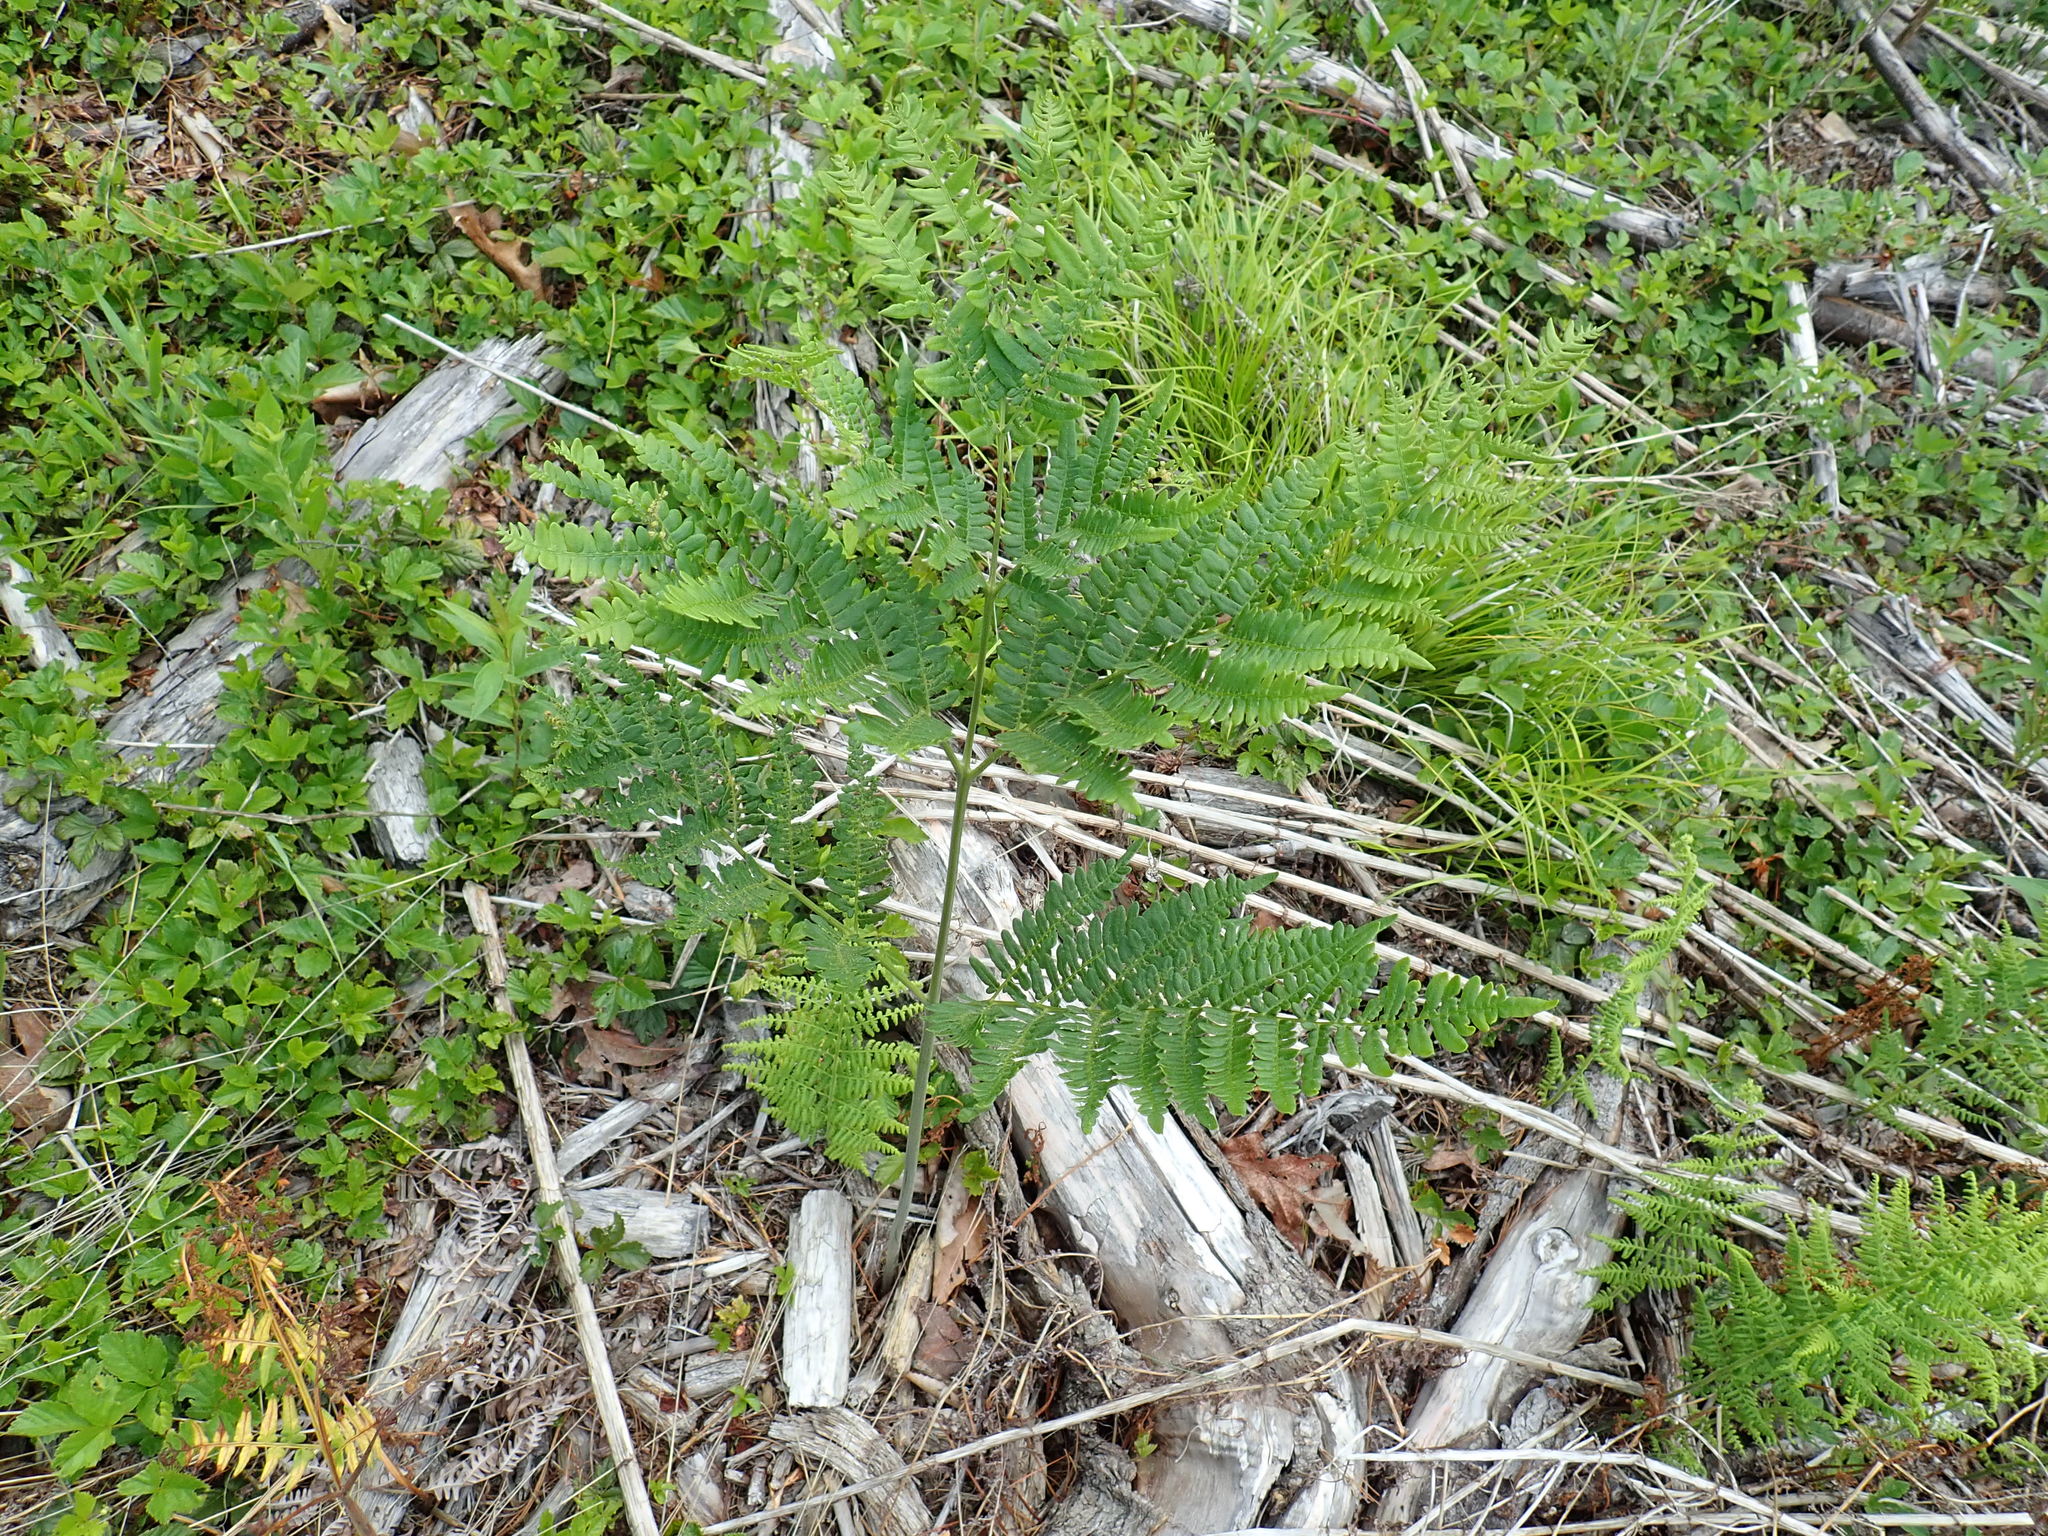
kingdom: Plantae
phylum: Tracheophyta
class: Polypodiopsida
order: Polypodiales
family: Dennstaedtiaceae
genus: Pteridium
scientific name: Pteridium aquilinum
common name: Bracken
